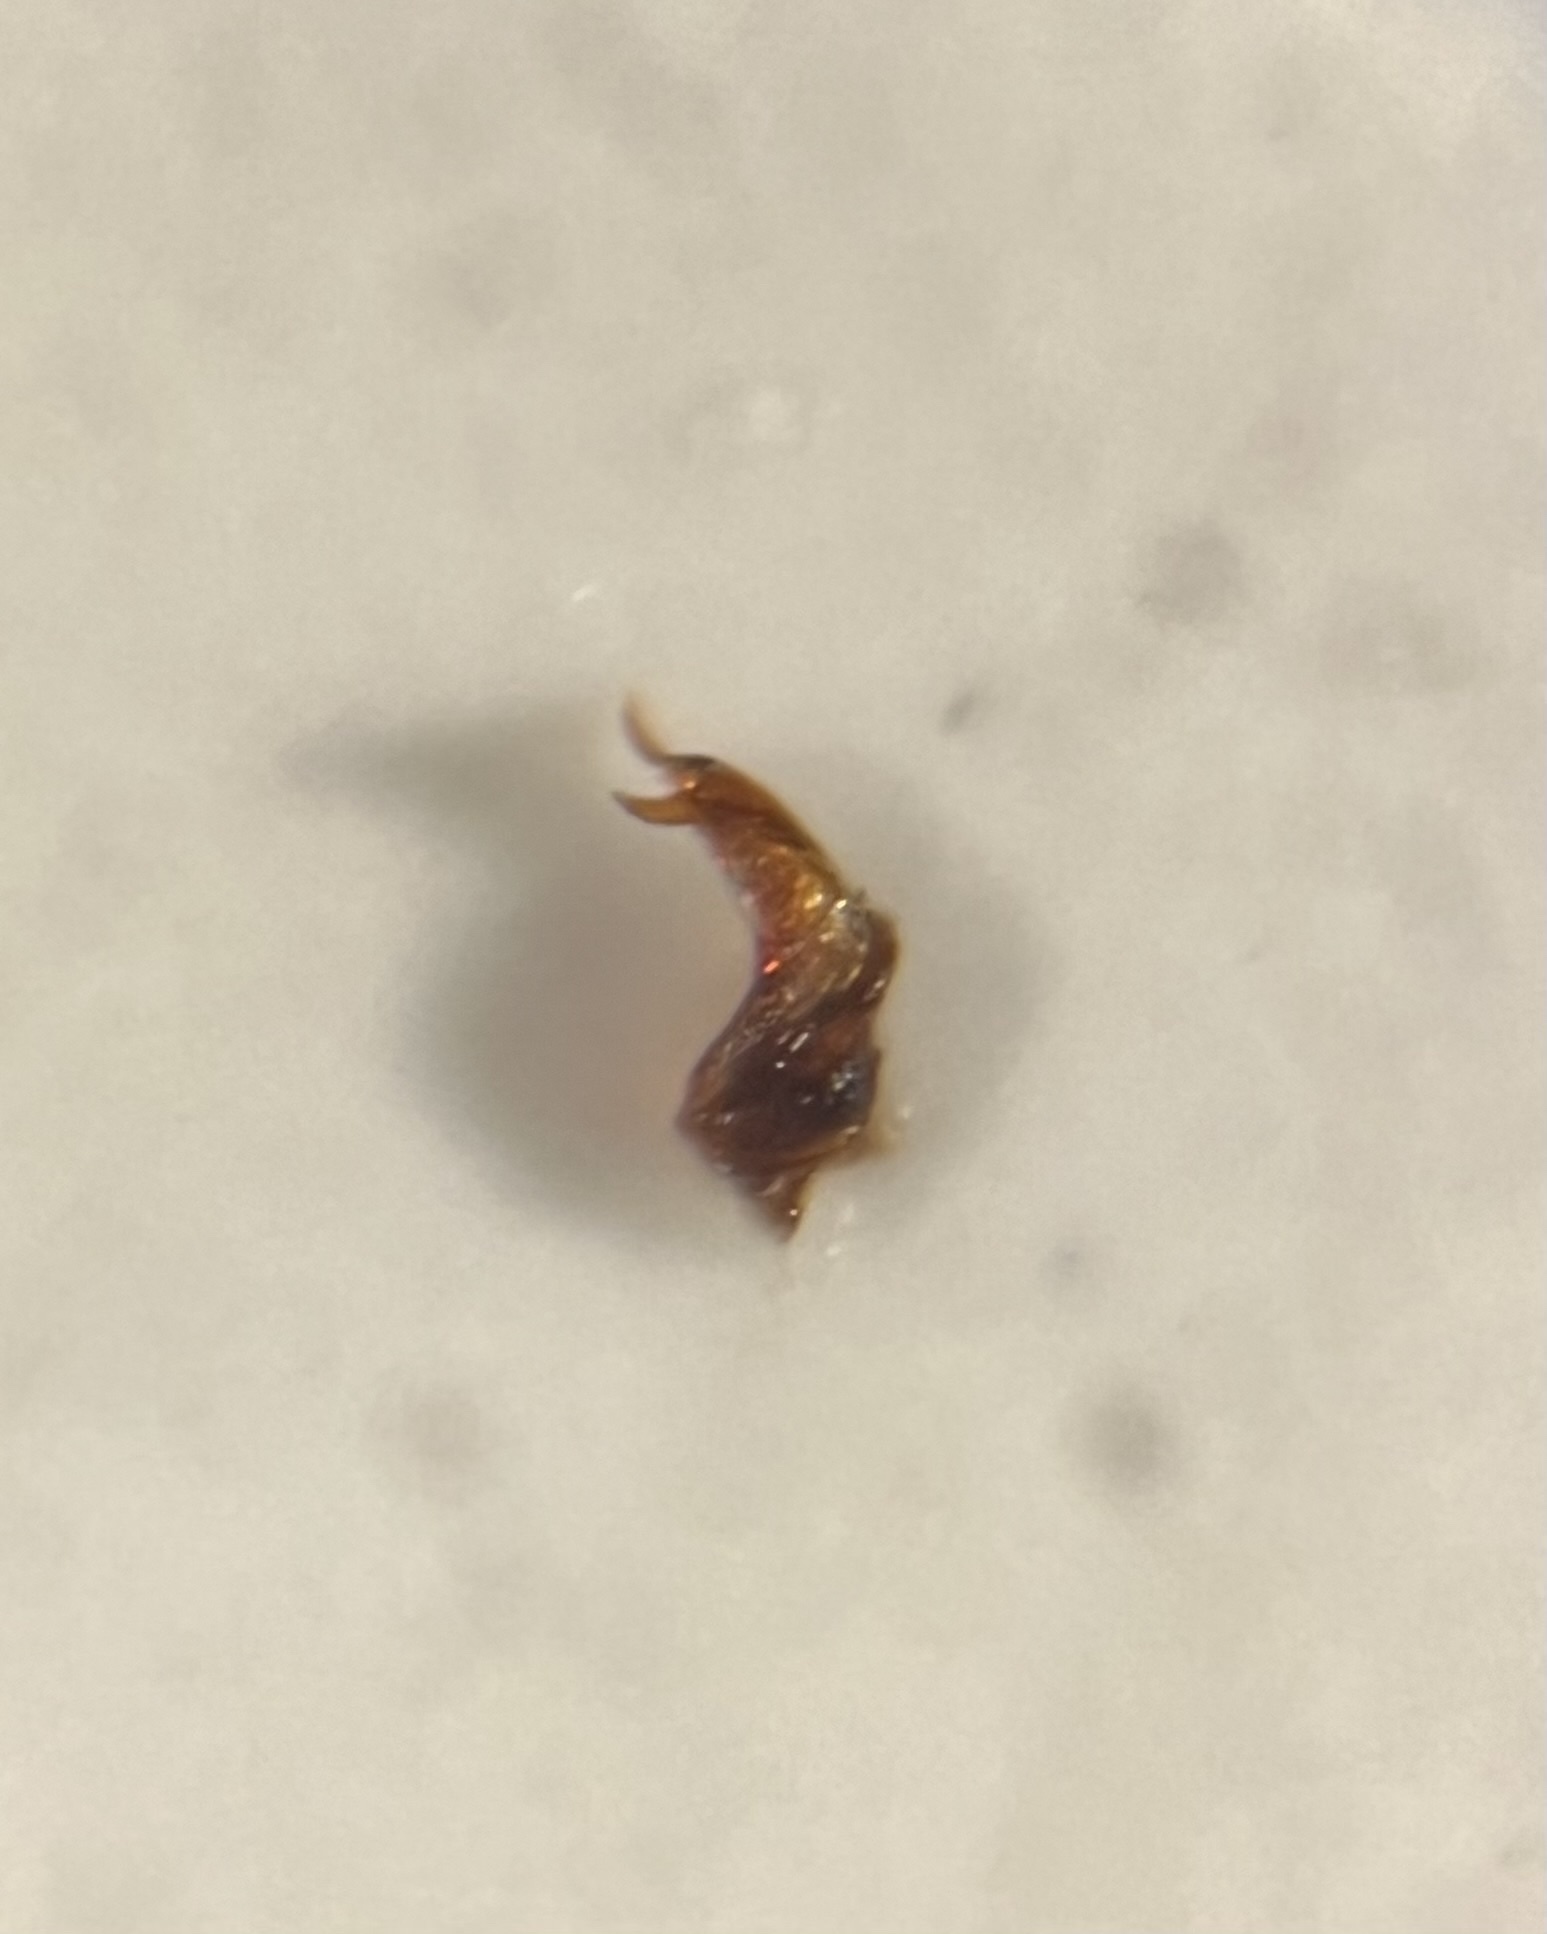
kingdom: Animalia
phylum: Arthropoda
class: Insecta
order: Hemiptera
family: Delphacidae
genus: Delphacodes
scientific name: Delphacodes capnodes
